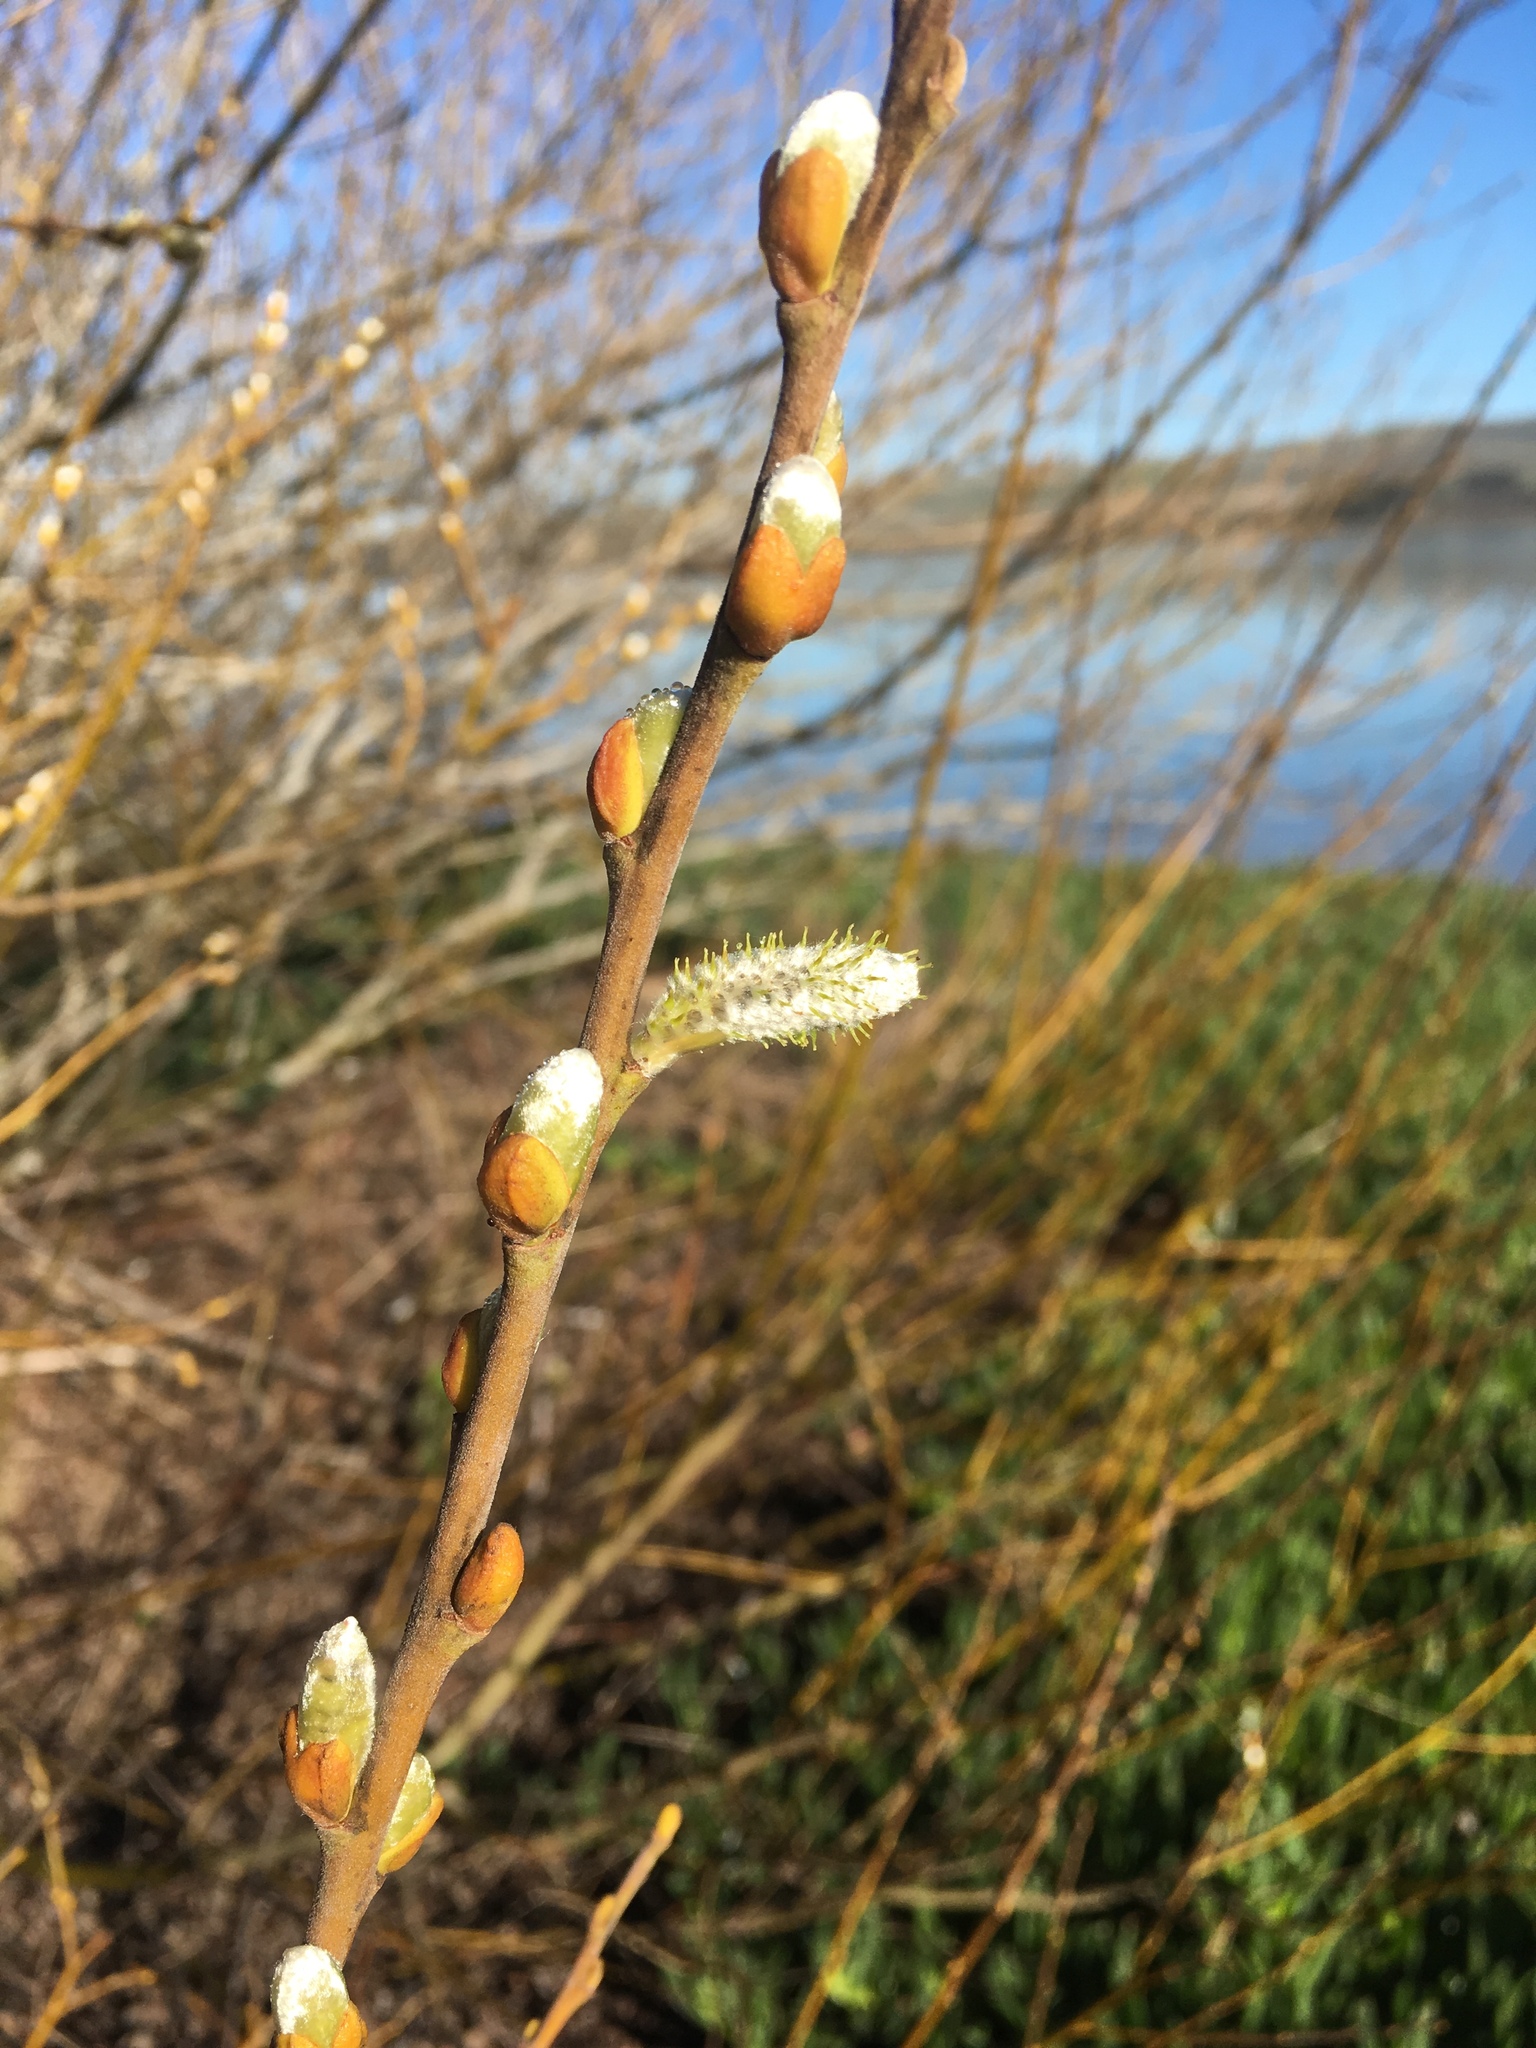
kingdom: Plantae
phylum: Tracheophyta
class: Magnoliopsida
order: Malpighiales
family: Salicaceae
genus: Salix
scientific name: Salix lasiolepis
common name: Arroyo willow
